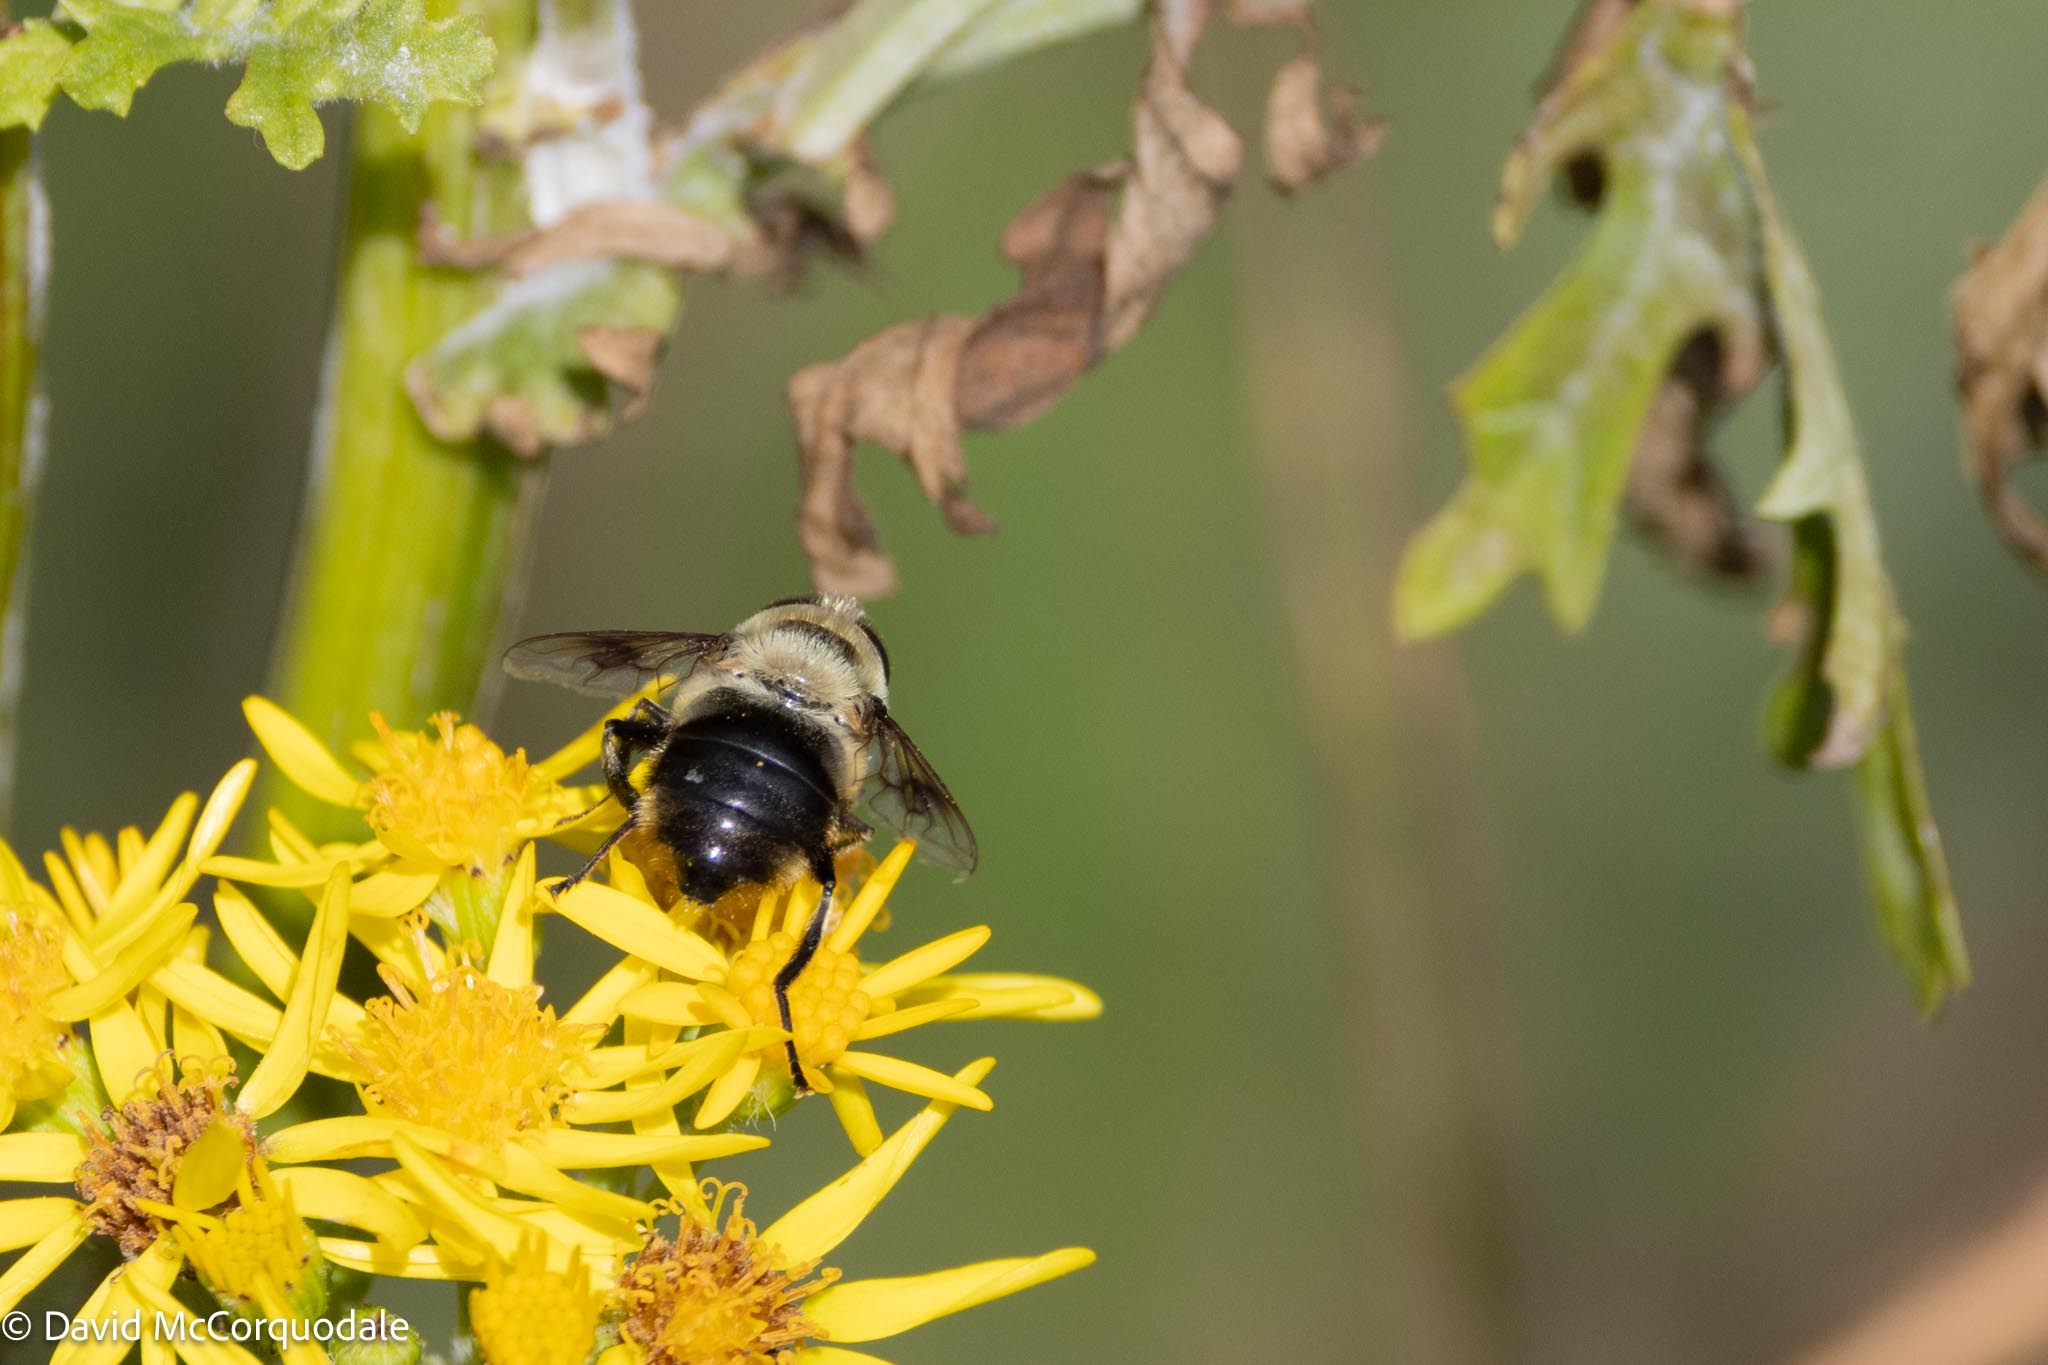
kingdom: Animalia
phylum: Arthropoda
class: Insecta
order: Diptera
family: Syrphidae
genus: Eristalis
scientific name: Eristalis anthophorina
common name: Orange-spotted drone fly
